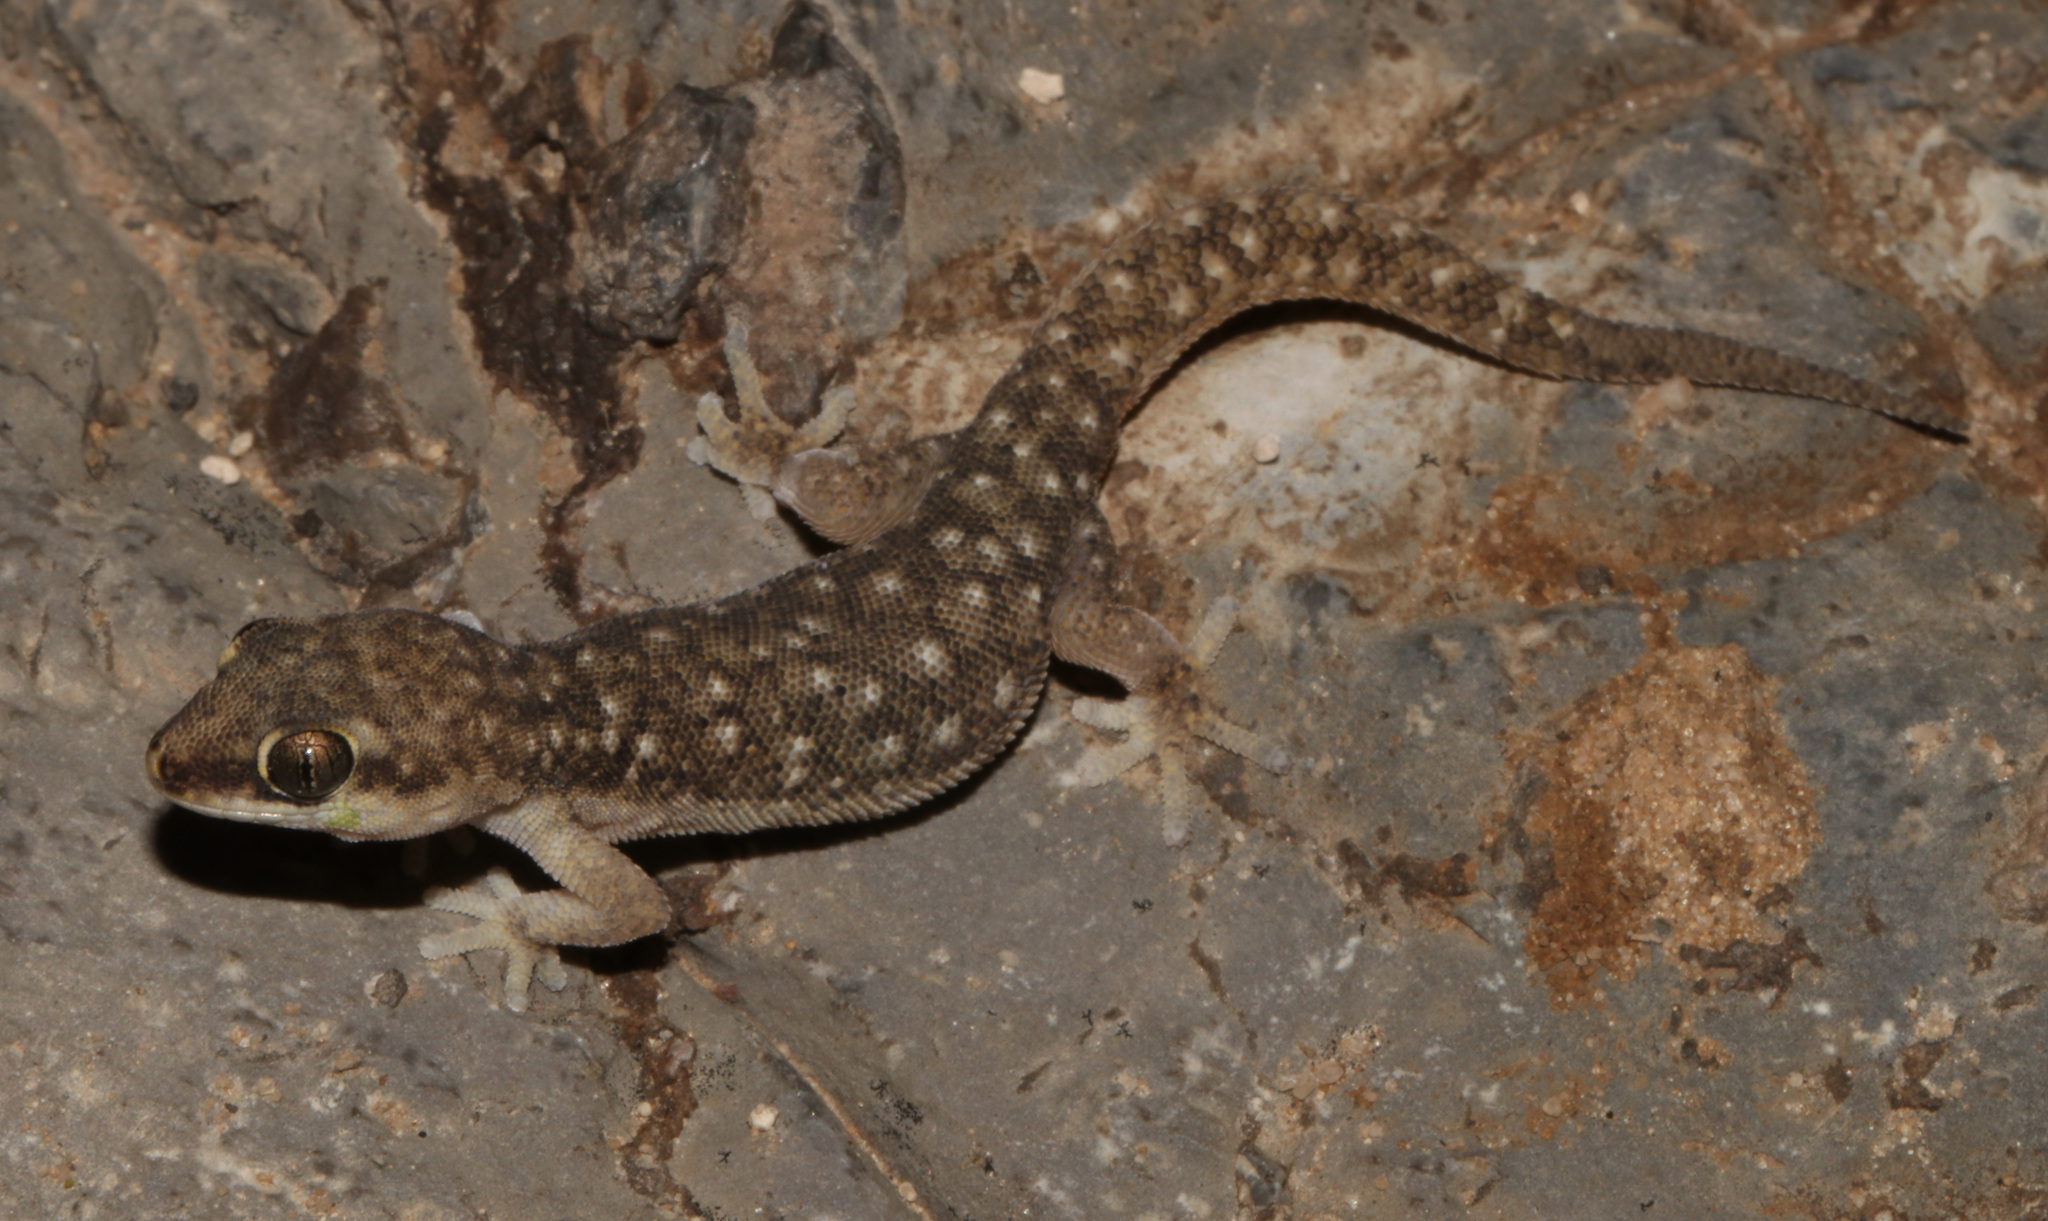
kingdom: Animalia
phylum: Chordata
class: Squamata
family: Gekkonidae
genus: Pachydactylus
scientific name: Pachydactylus punctatus
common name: Pointed thick-toed gecko
